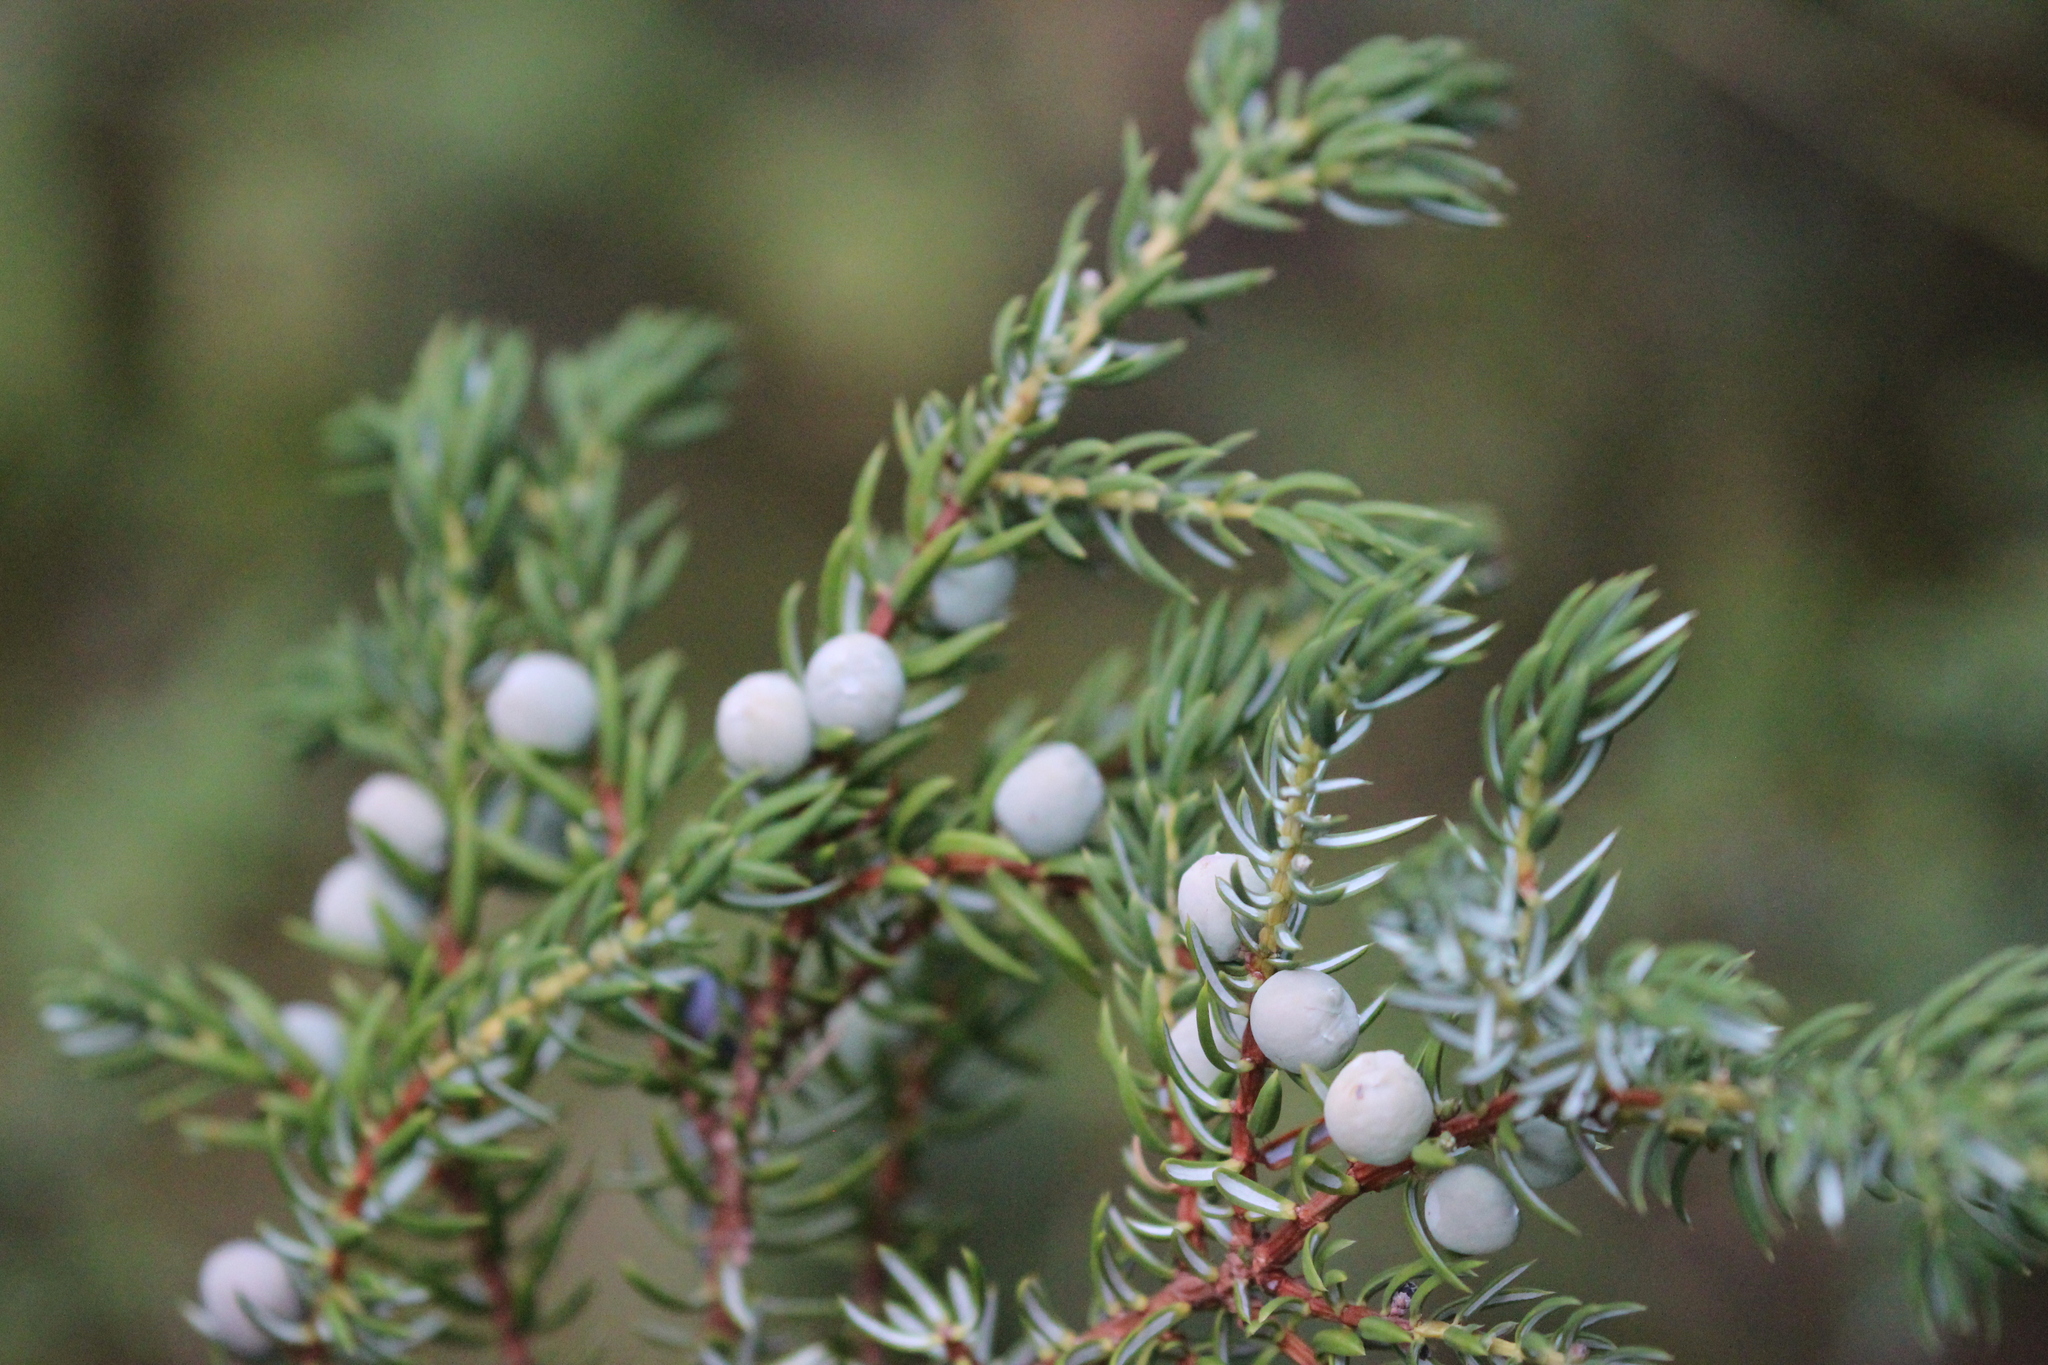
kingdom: Plantae
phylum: Tracheophyta
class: Pinopsida
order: Pinales
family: Cupressaceae
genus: Juniperus
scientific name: Juniperus communis
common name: Common juniper
